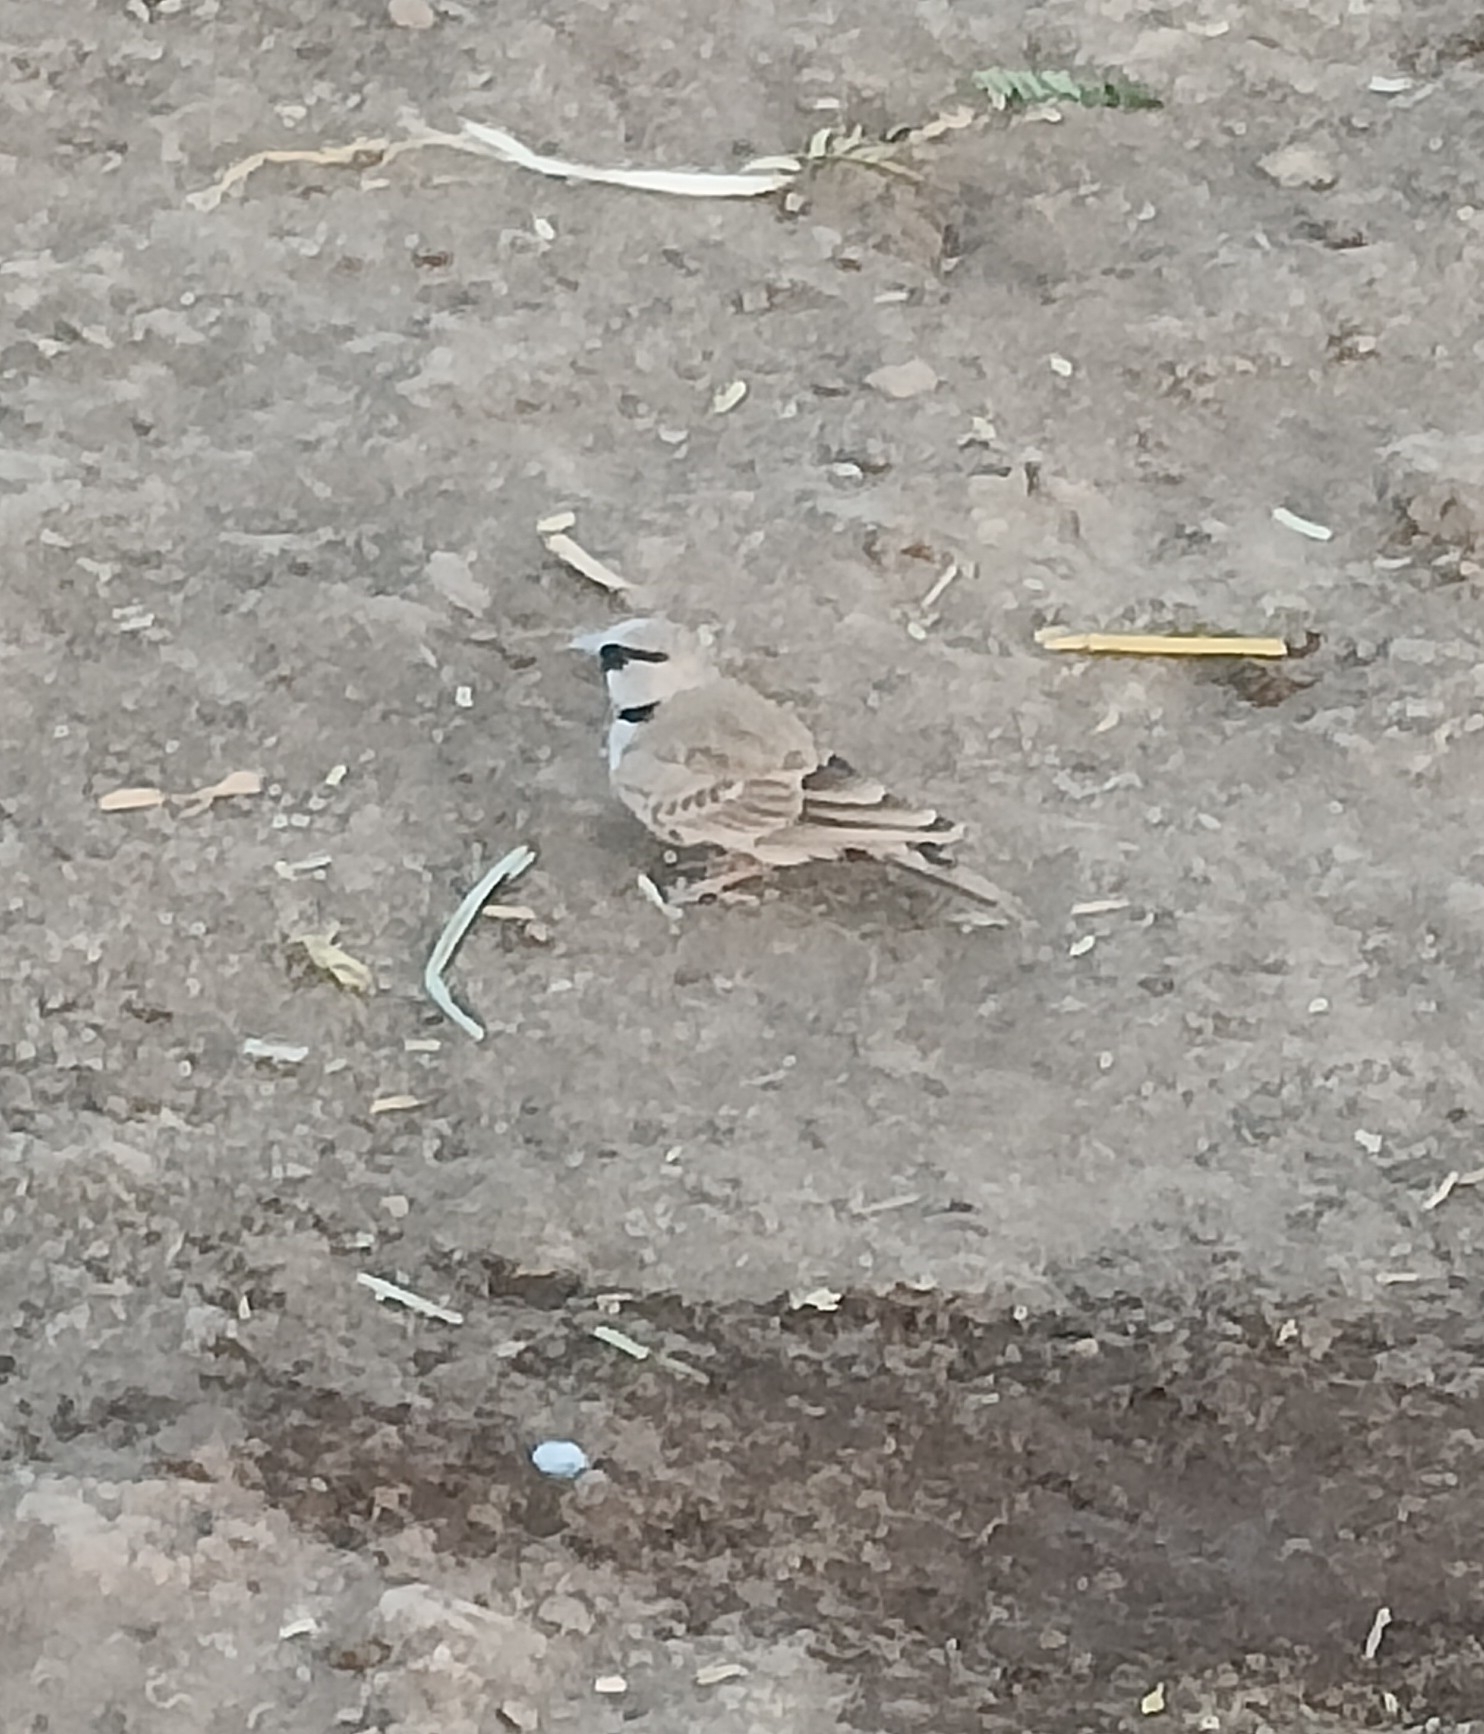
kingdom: Animalia
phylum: Chordata
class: Aves
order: Passeriformes
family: Alaudidae
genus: Eremopterix
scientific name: Eremopterix griseus
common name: Ashy-crowned sparrow-lark
